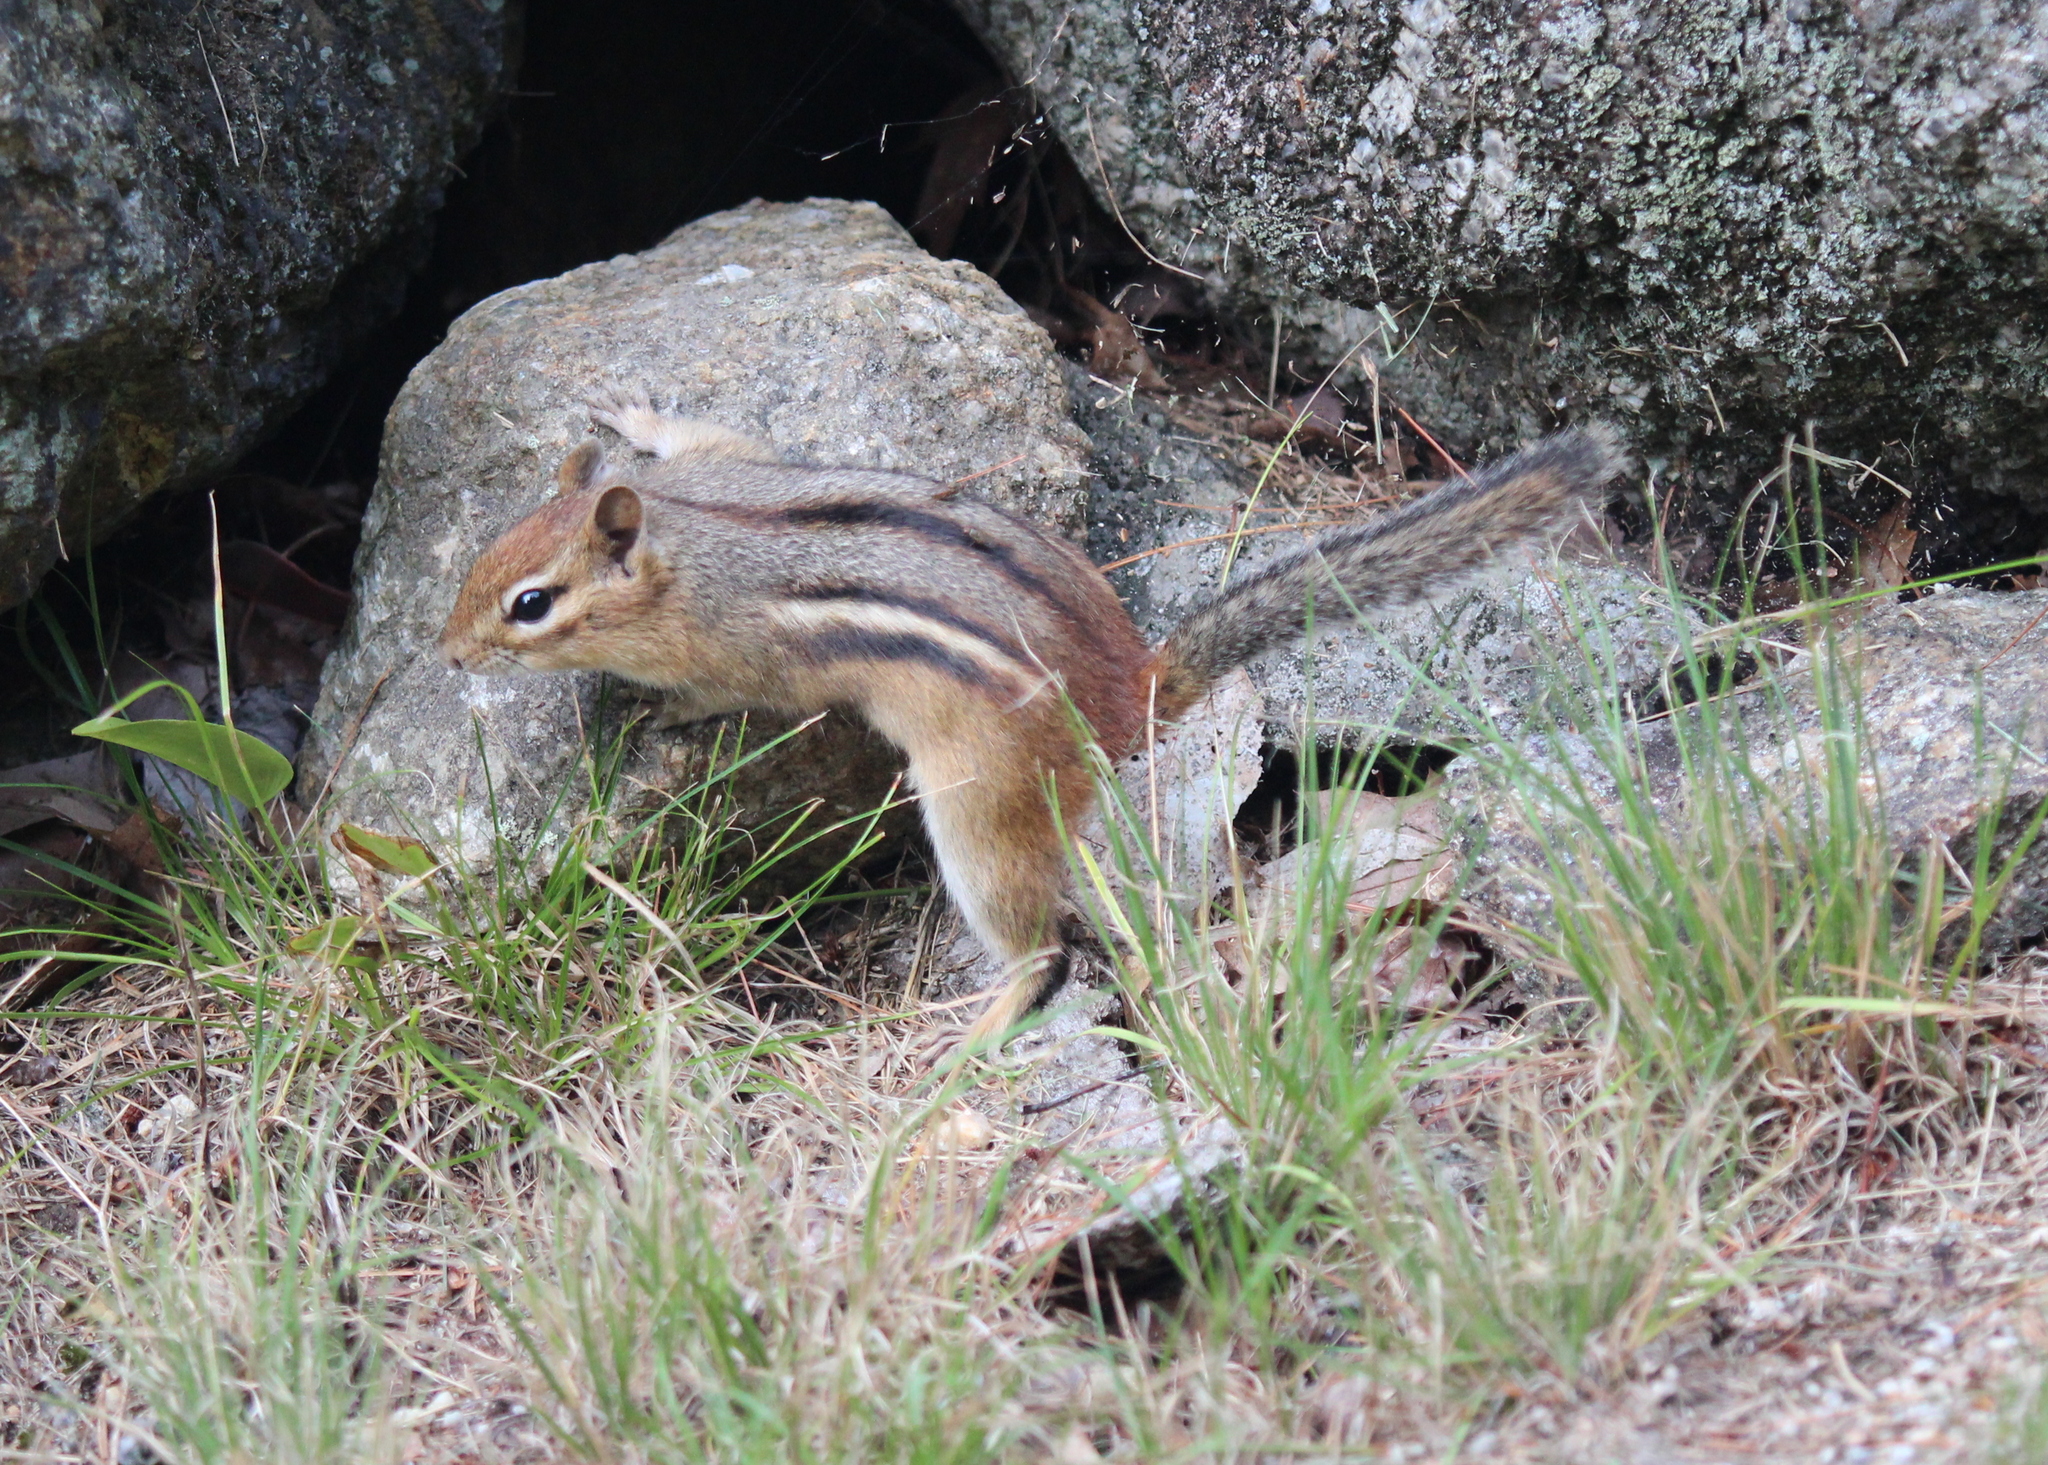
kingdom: Animalia
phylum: Chordata
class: Mammalia
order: Rodentia
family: Sciuridae
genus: Tamias
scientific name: Tamias striatus
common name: Eastern chipmunk
